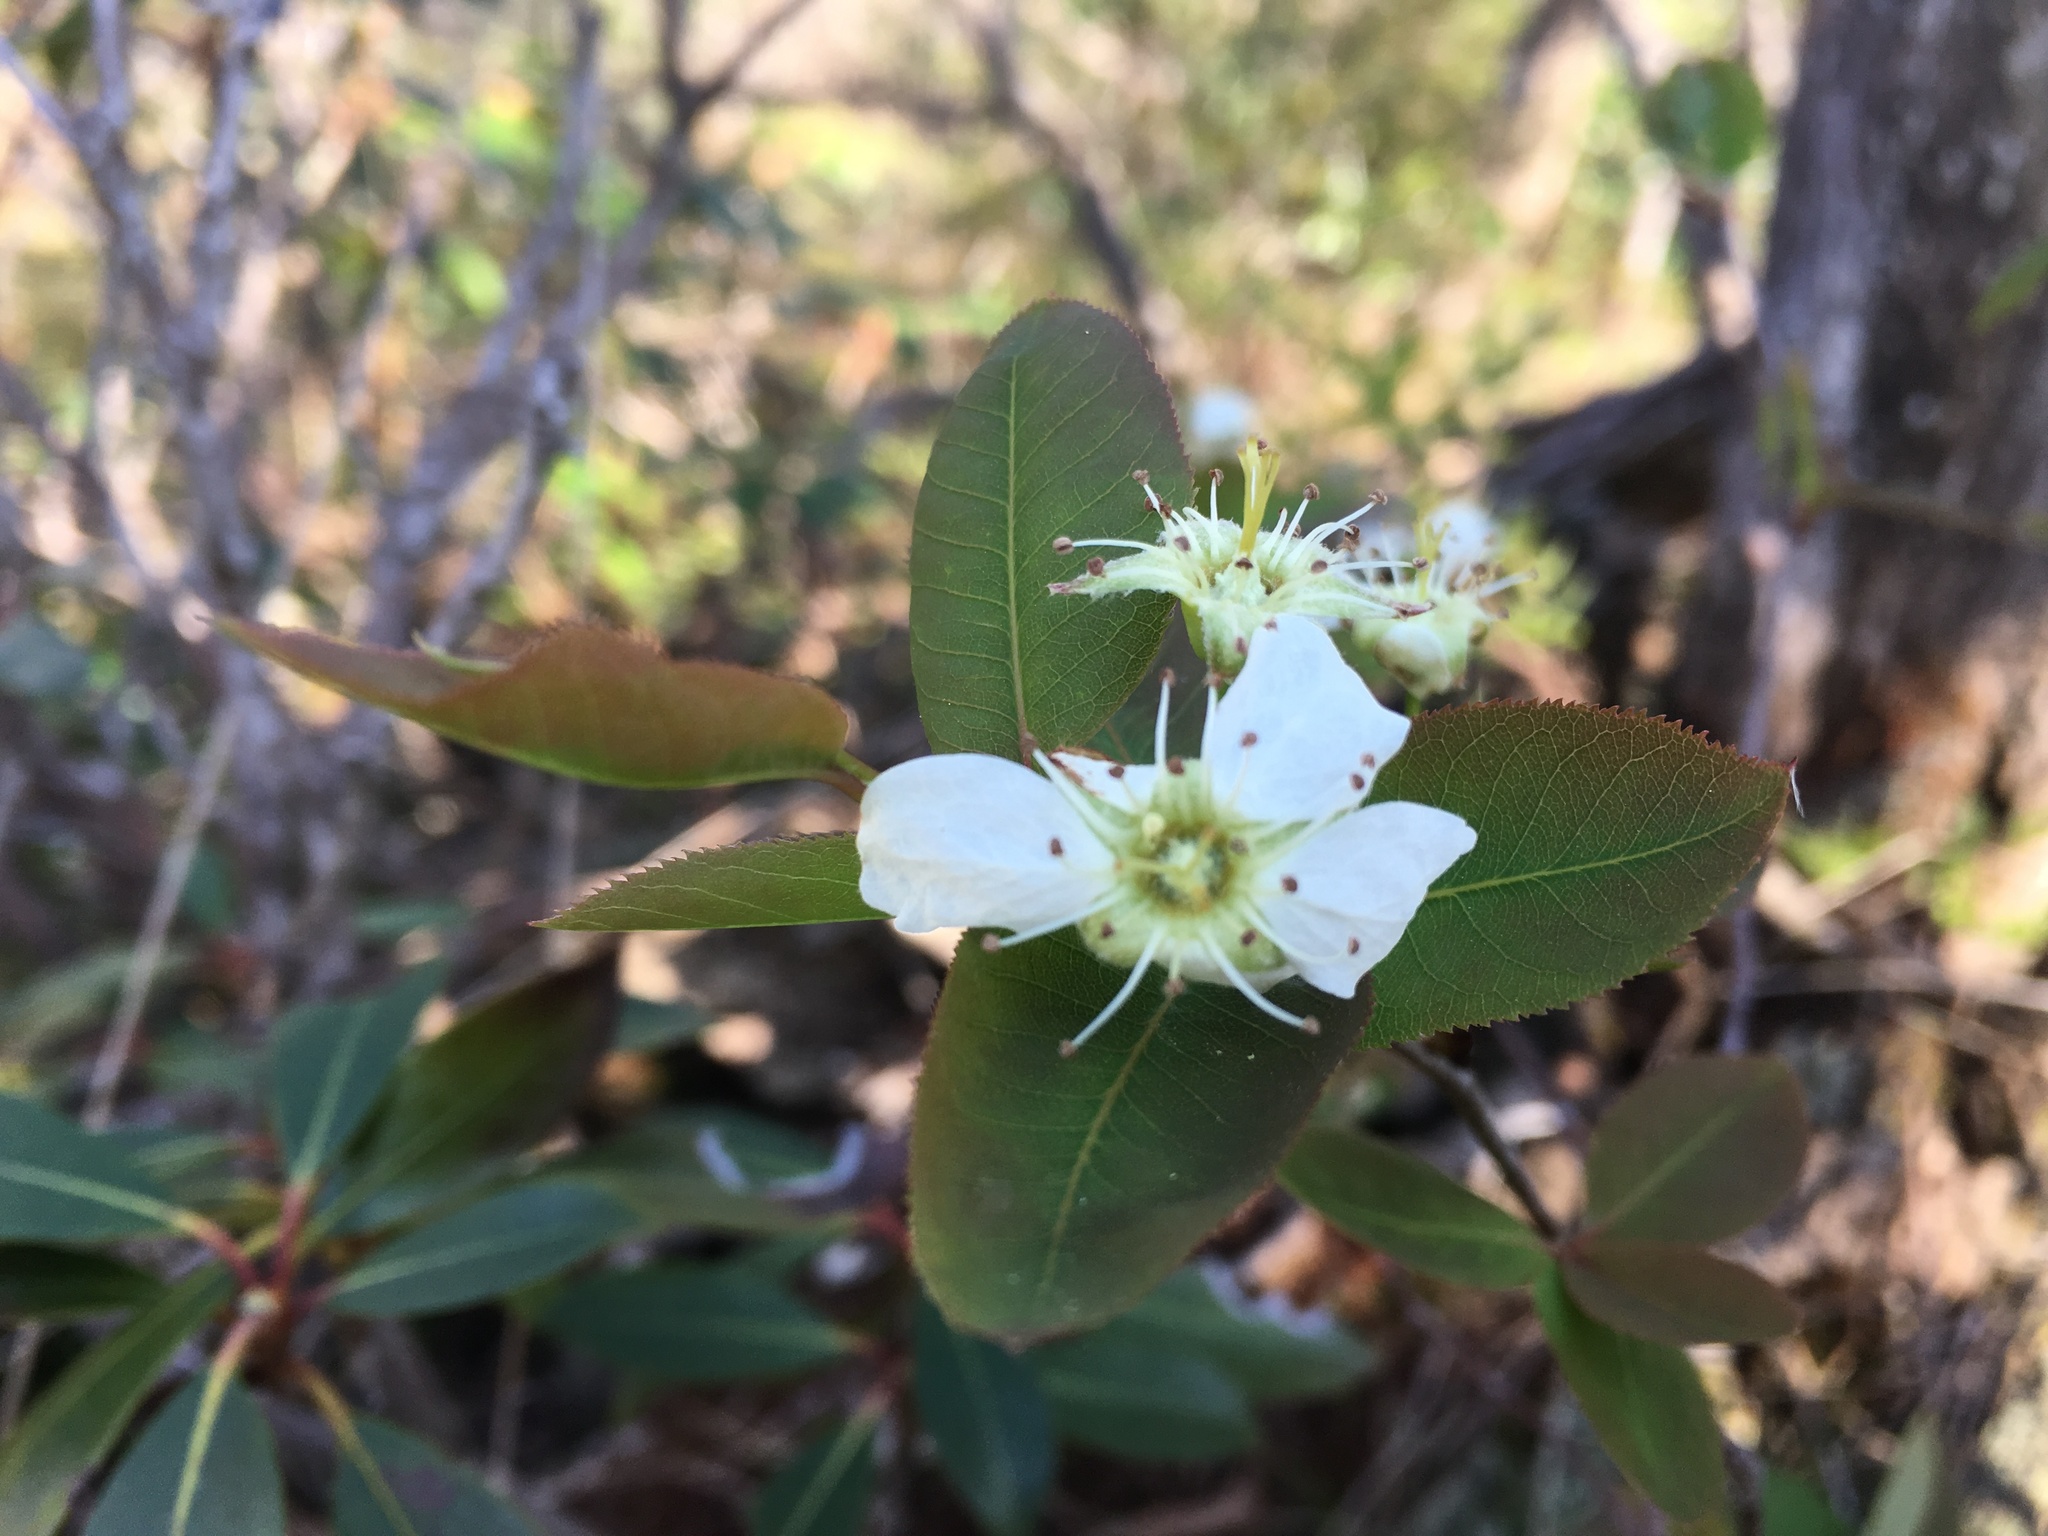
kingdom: Plantae
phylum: Tracheophyta
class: Magnoliopsida
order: Rosales
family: Rosaceae
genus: Amelanchier
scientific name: Amelanchier bartramiana
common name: Mountain serviceberry
